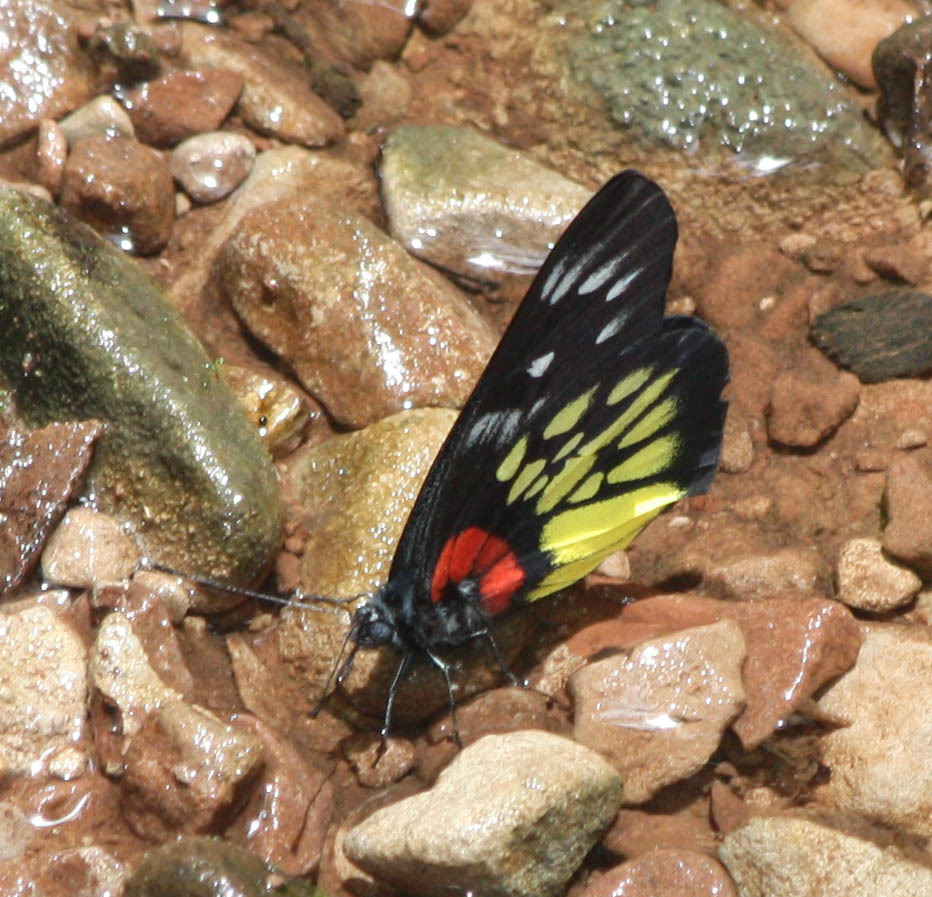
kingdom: Animalia
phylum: Arthropoda
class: Insecta
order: Lepidoptera
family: Pieridae
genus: Delias
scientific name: Delias pasithoe
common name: Red-base jezebel
